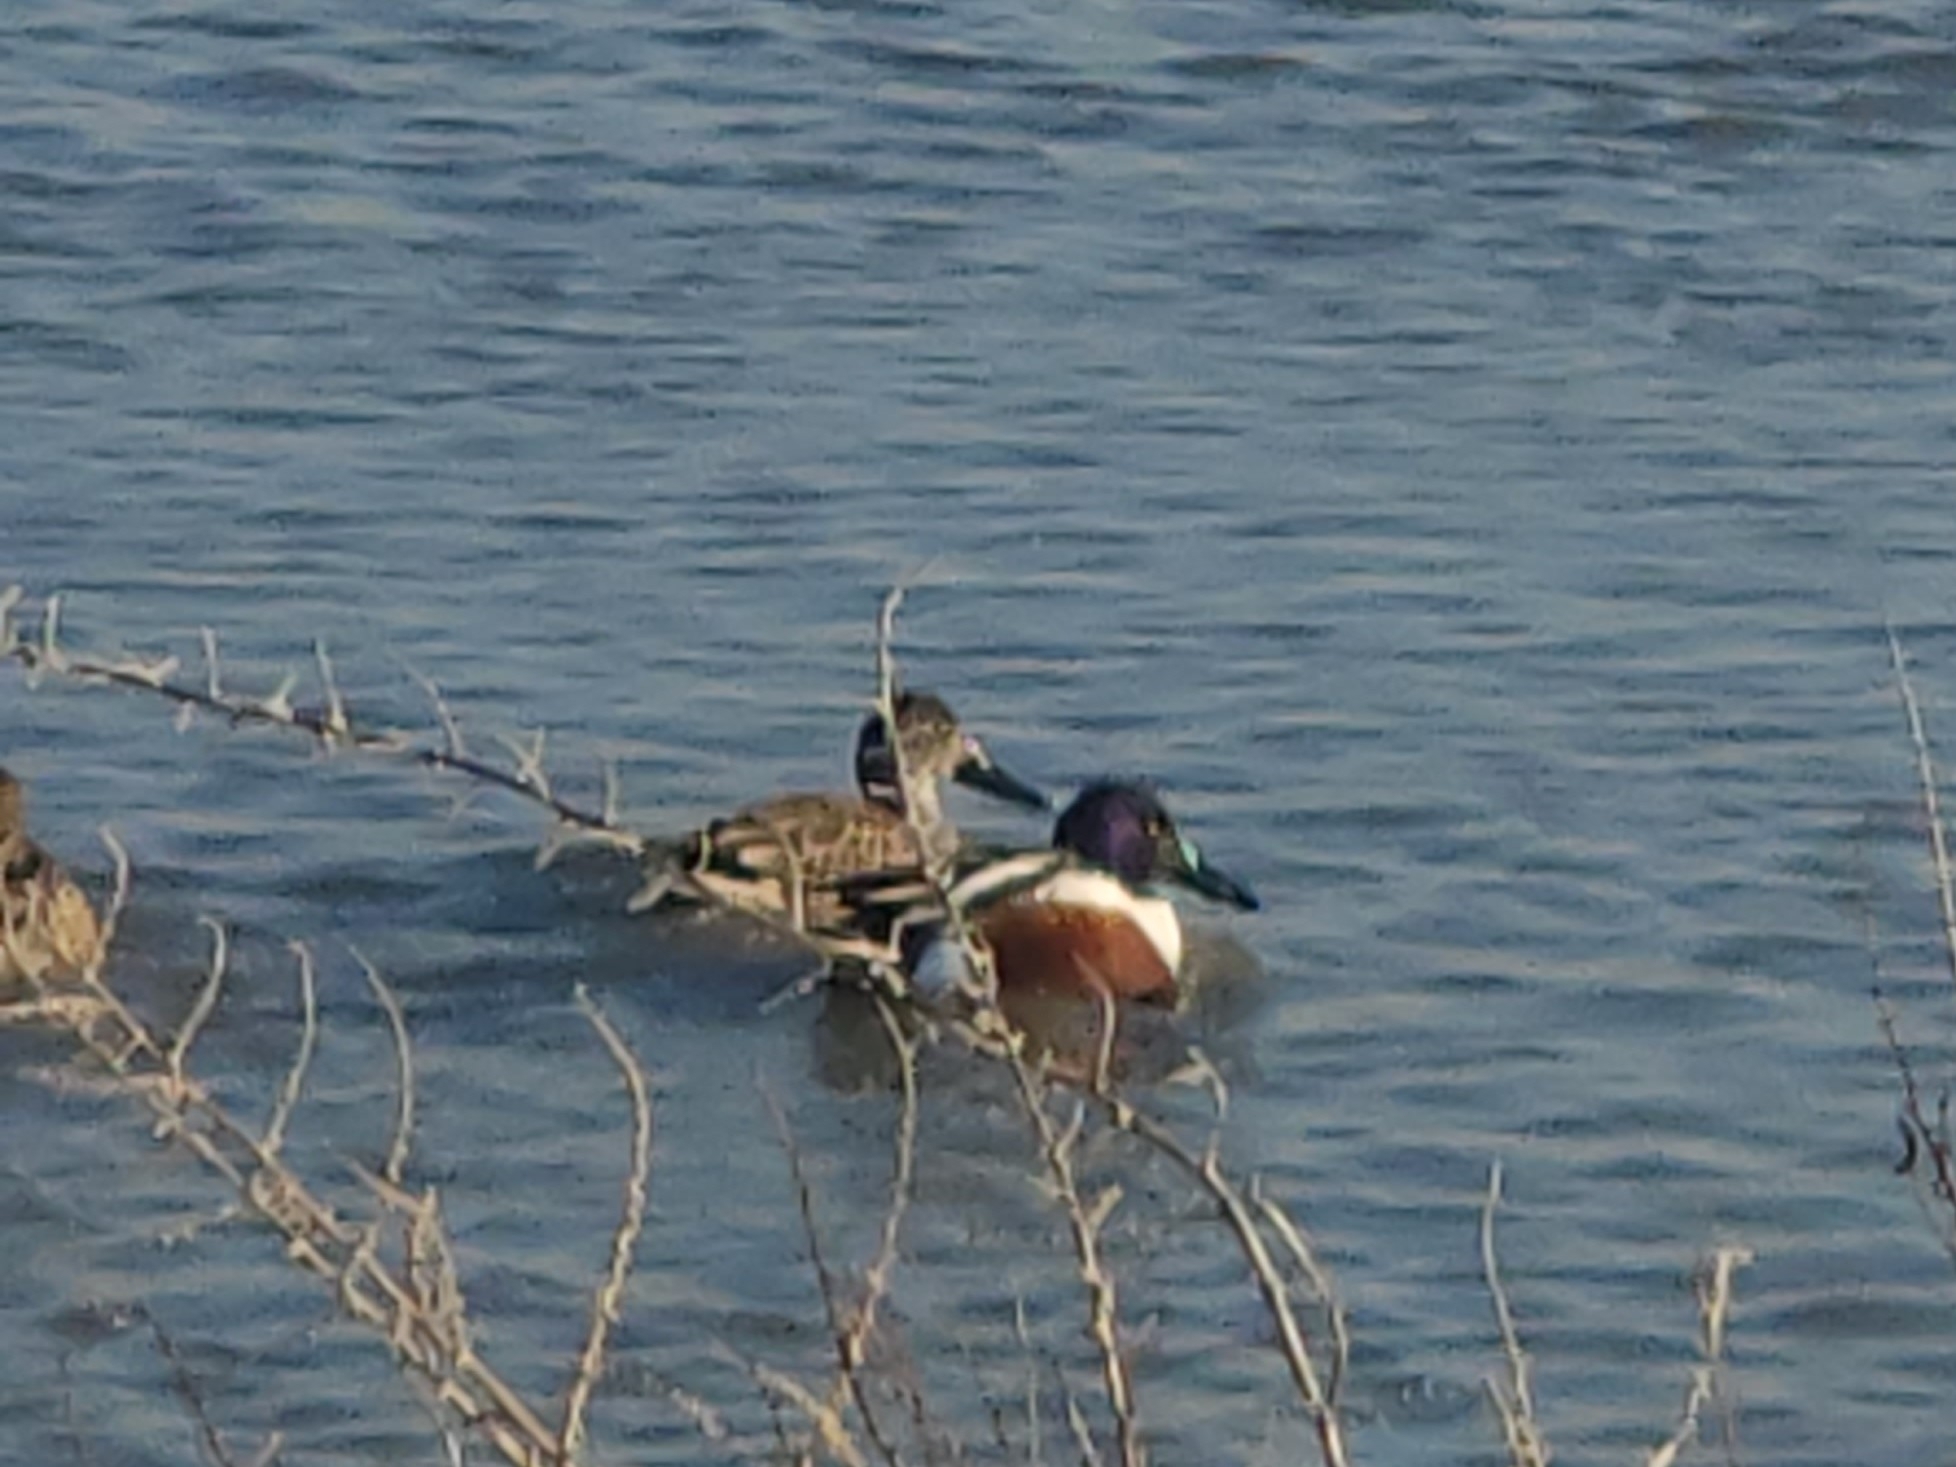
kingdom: Animalia
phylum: Chordata
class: Aves
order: Anseriformes
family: Anatidae
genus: Spatula
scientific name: Spatula clypeata
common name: Northern shoveler
